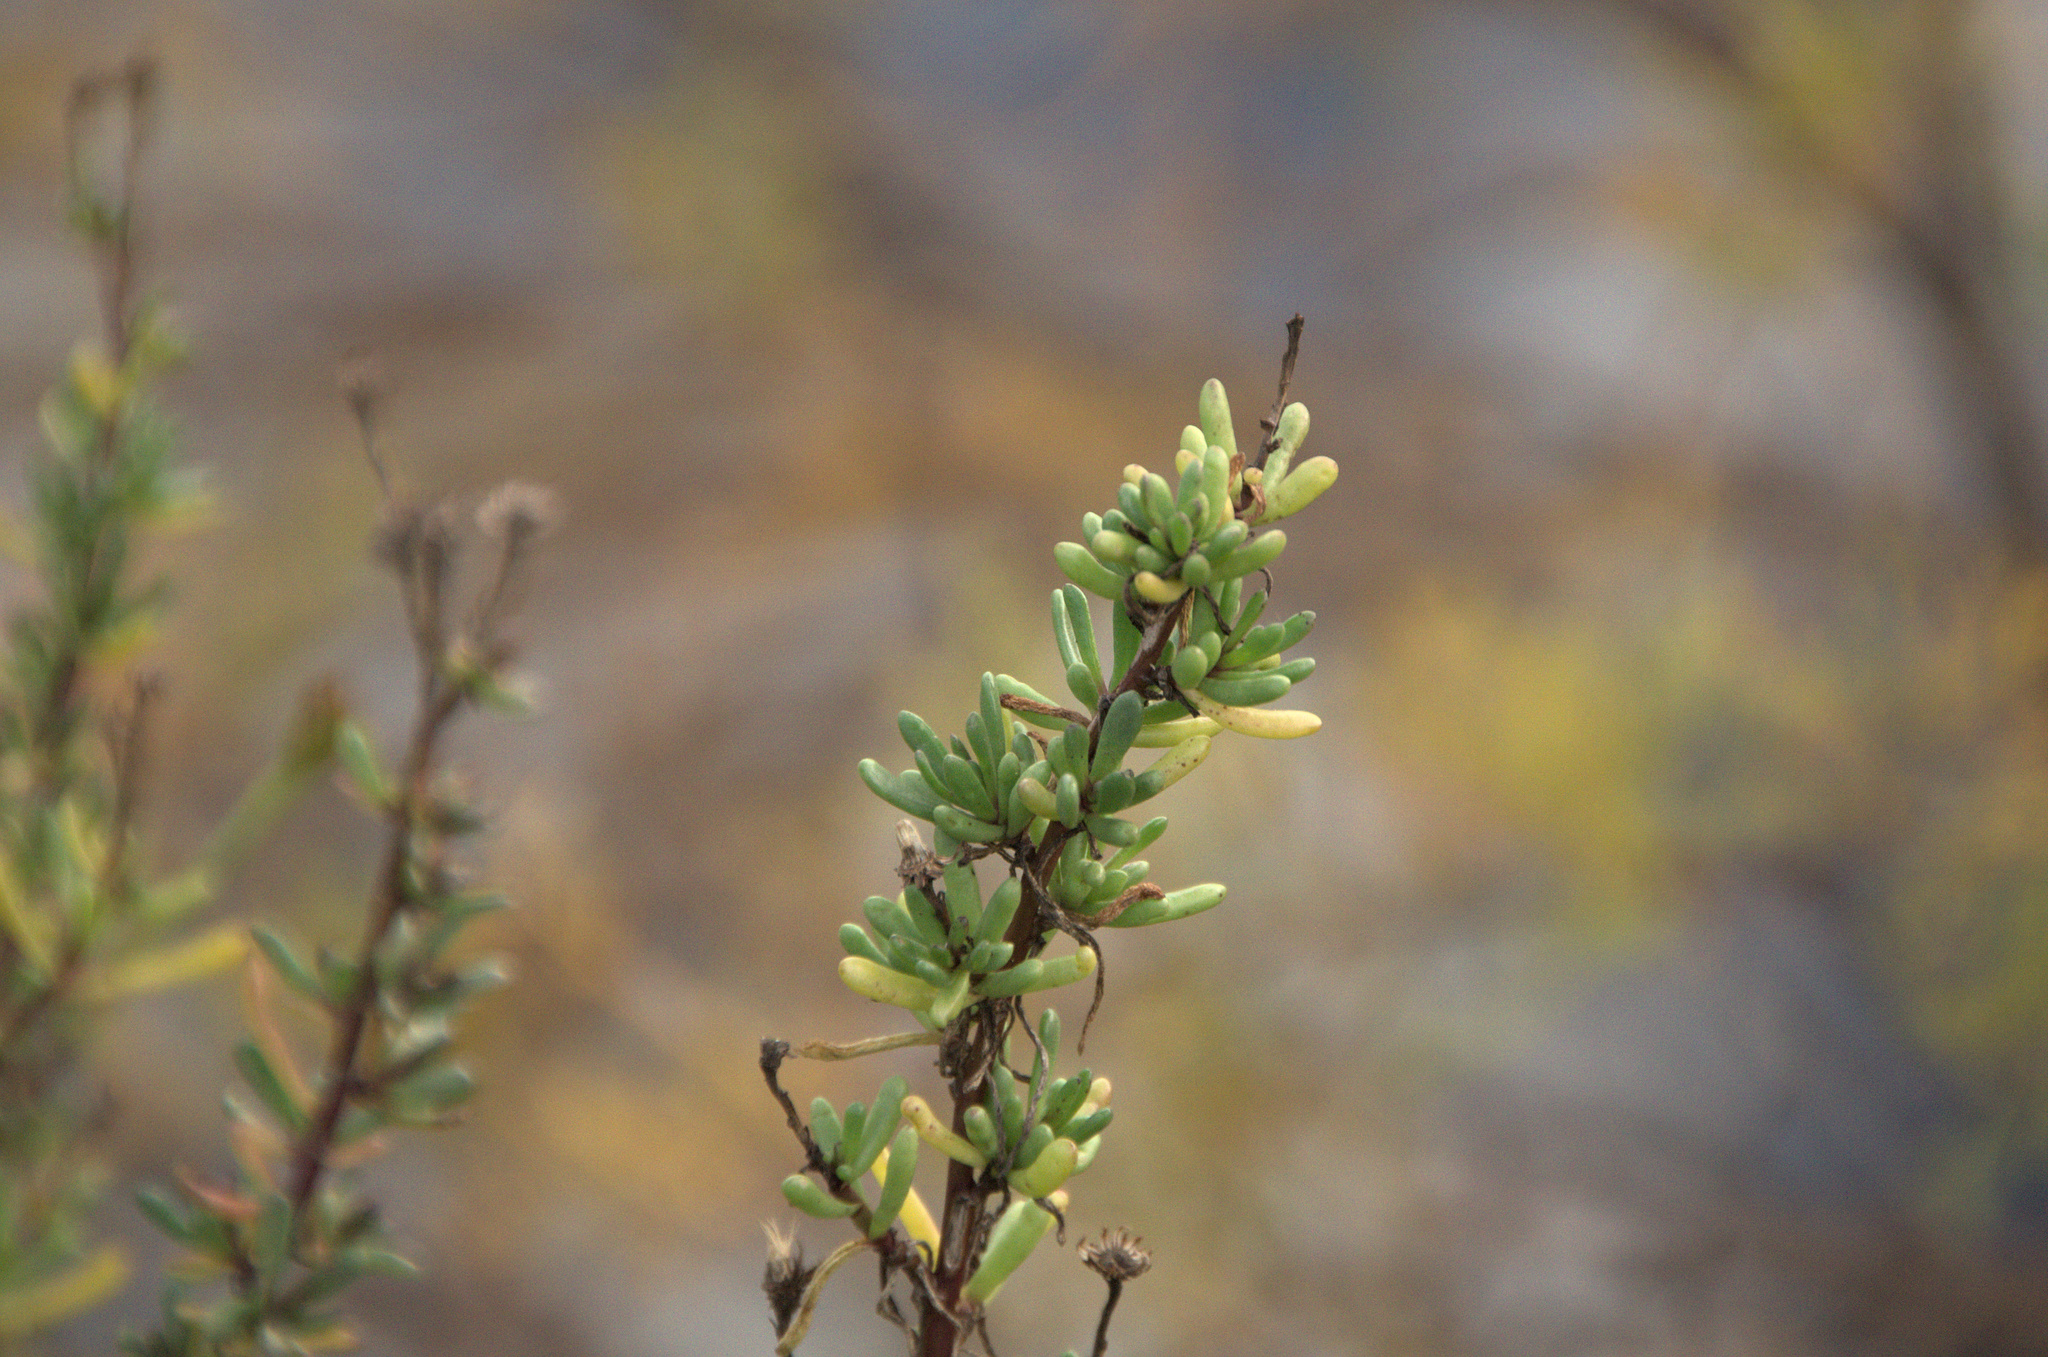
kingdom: Plantae
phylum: Tracheophyta
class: Magnoliopsida
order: Asterales
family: Asteraceae
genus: Limbarda
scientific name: Limbarda crithmoides
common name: Golden samphire
